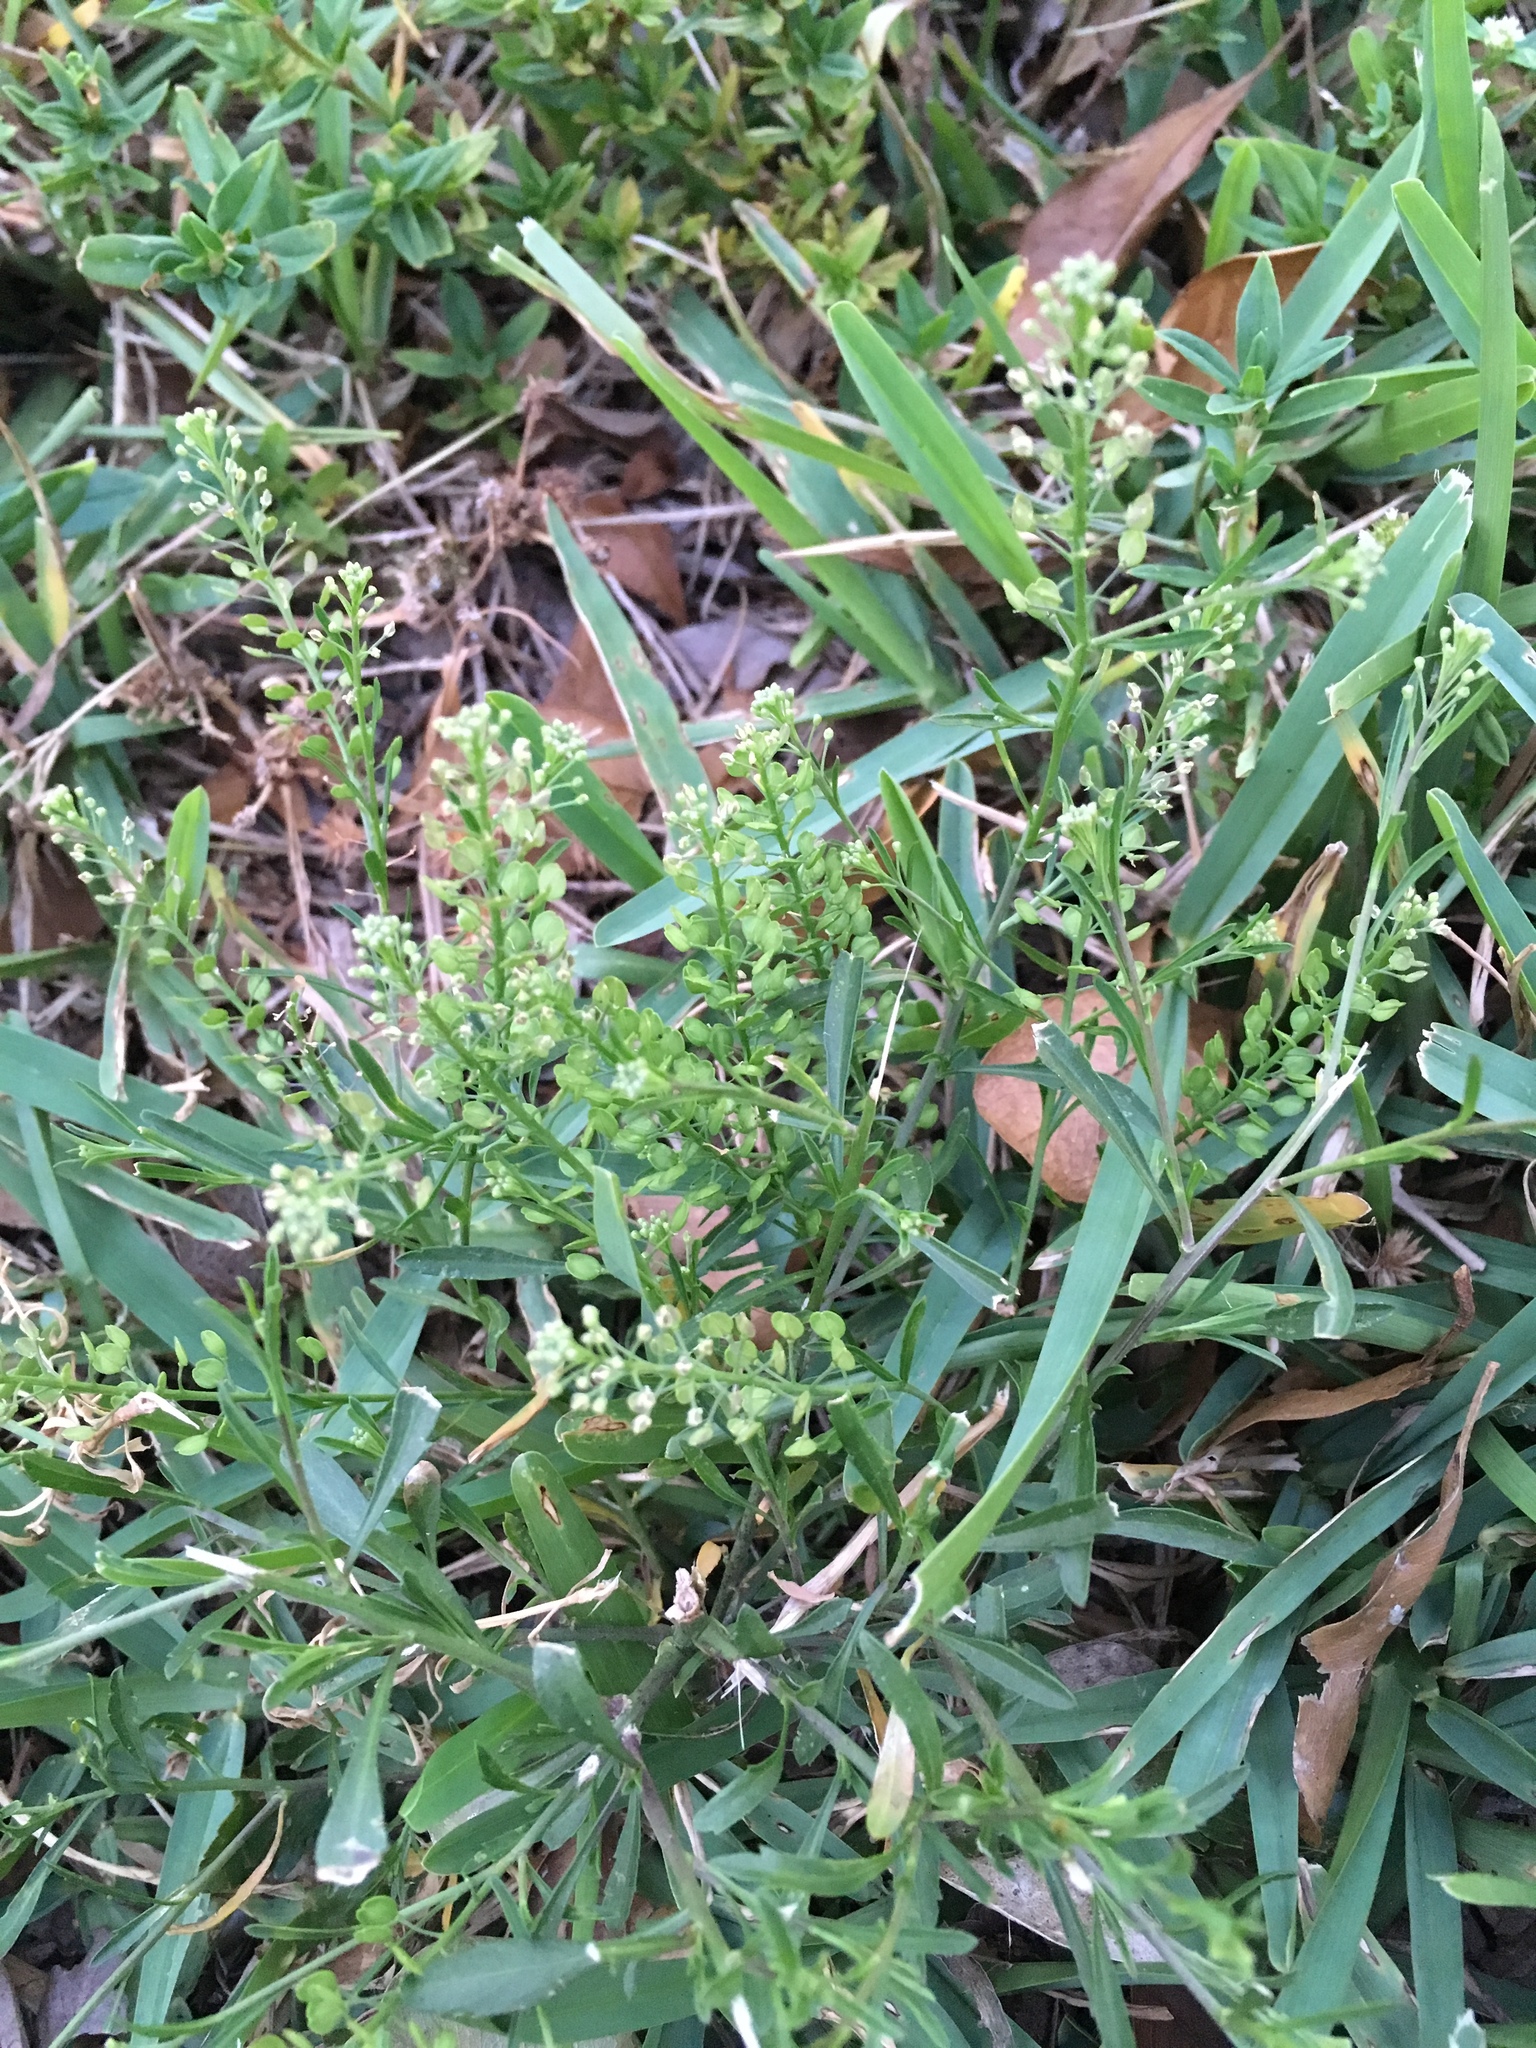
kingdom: Plantae
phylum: Tracheophyta
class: Magnoliopsida
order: Brassicales
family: Brassicaceae
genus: Lepidium
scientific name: Lepidium virginicum
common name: Least pepperwort
